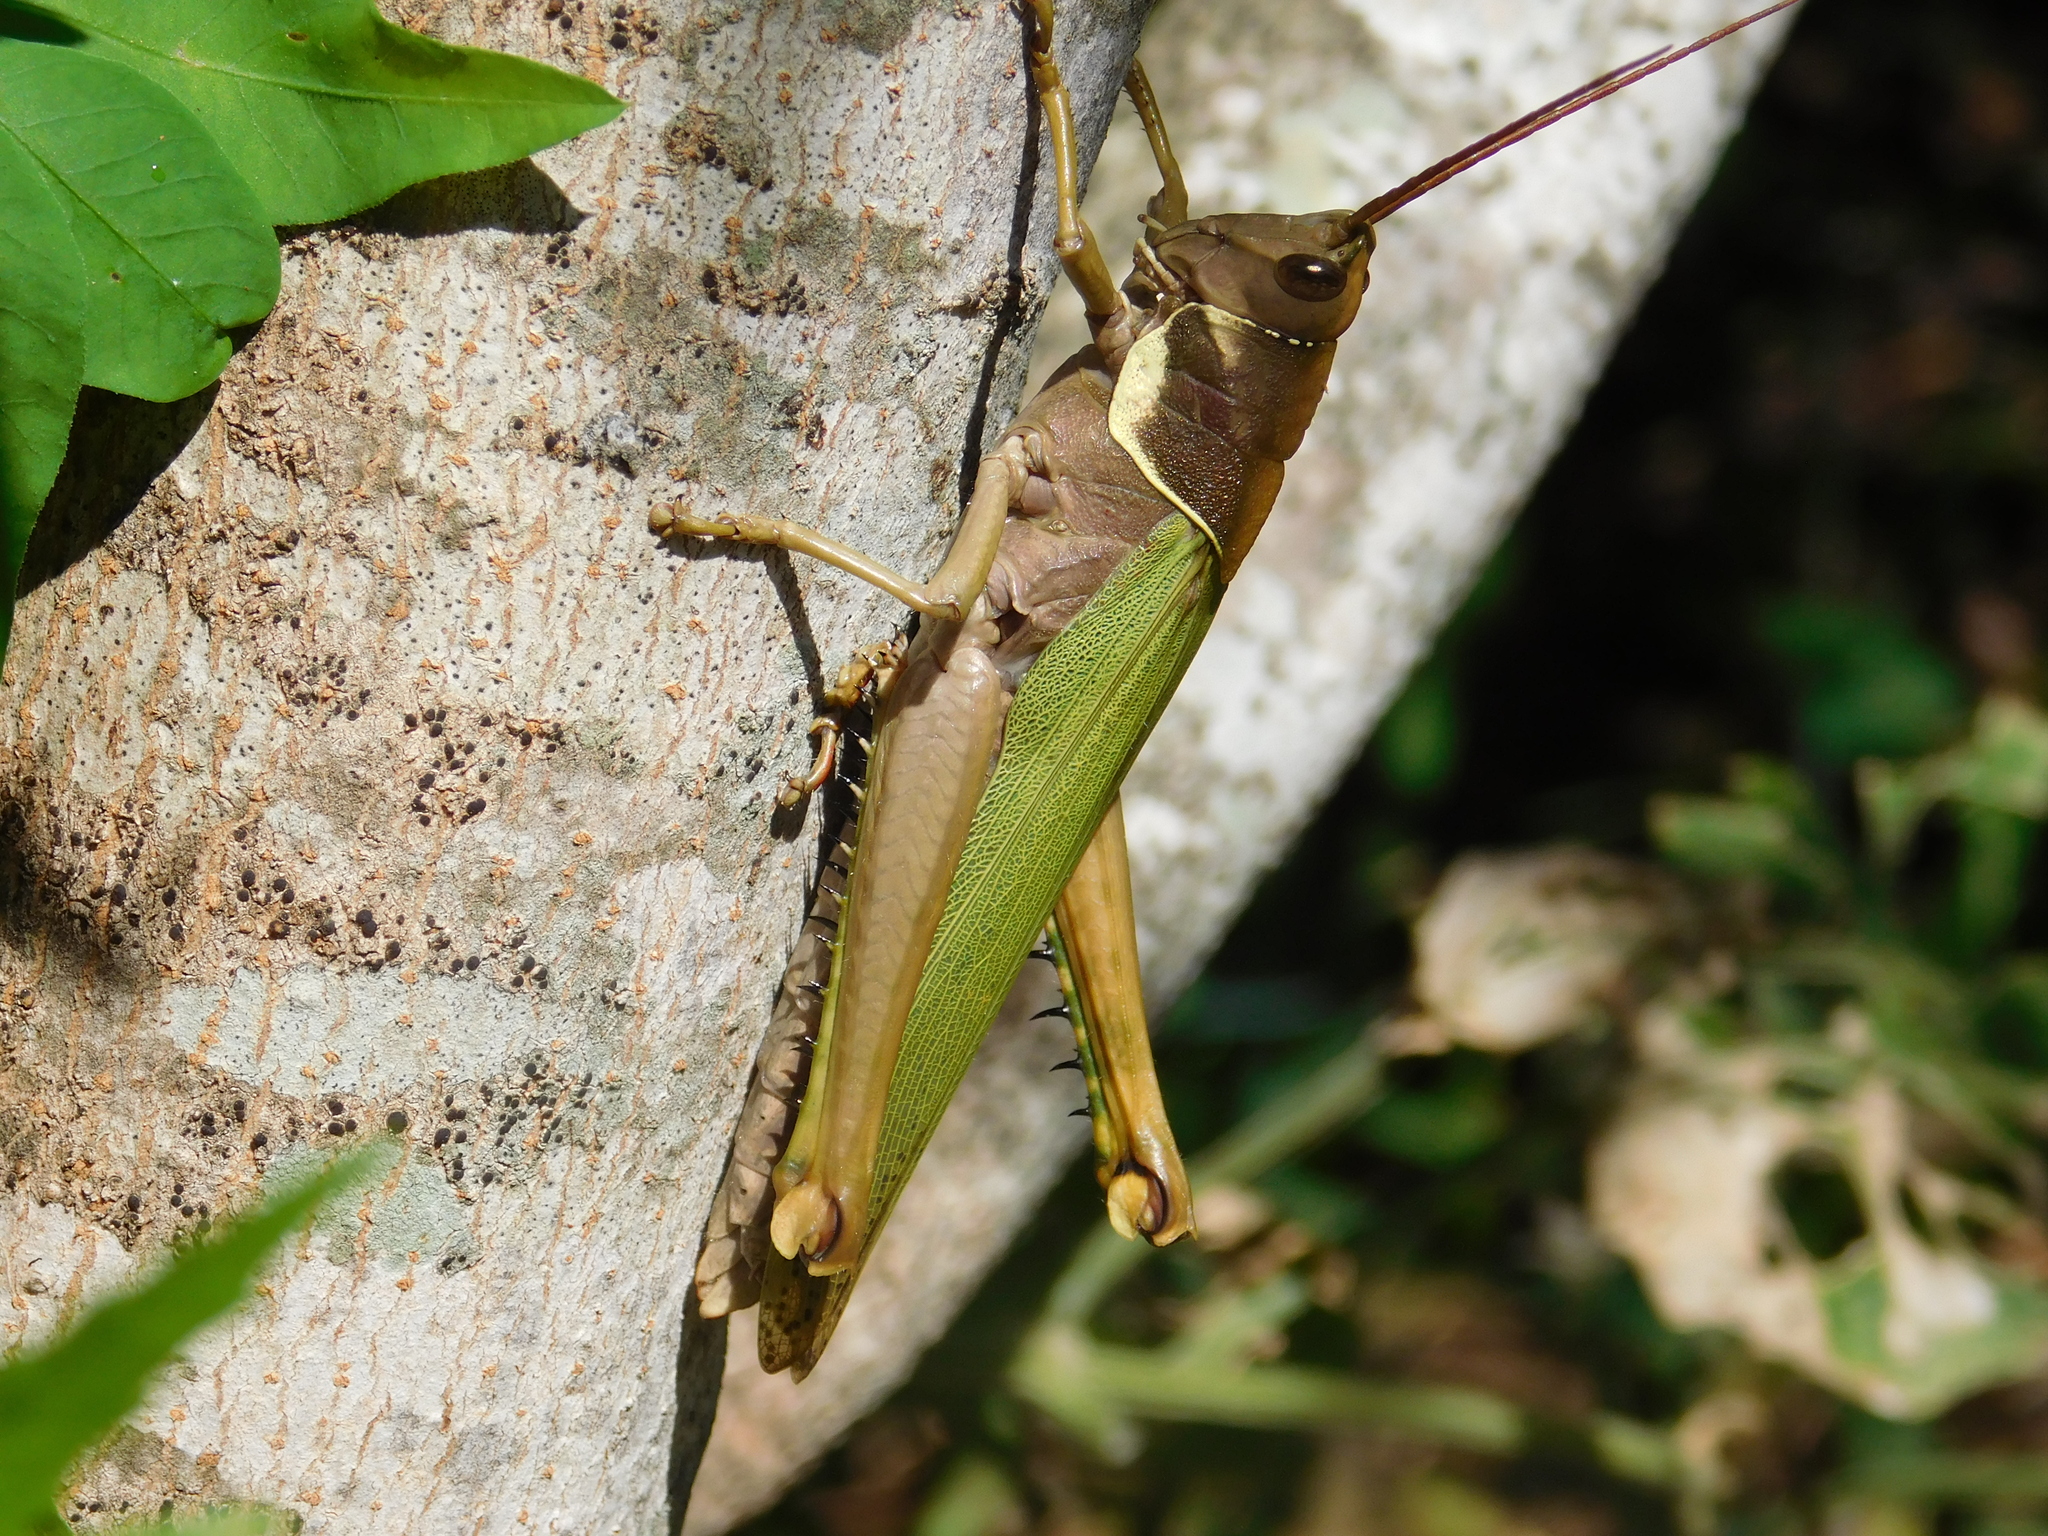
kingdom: Animalia
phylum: Arthropoda
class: Insecta
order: Orthoptera
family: Romaleidae
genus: Coryacris
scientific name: Coryacris angustipennis
